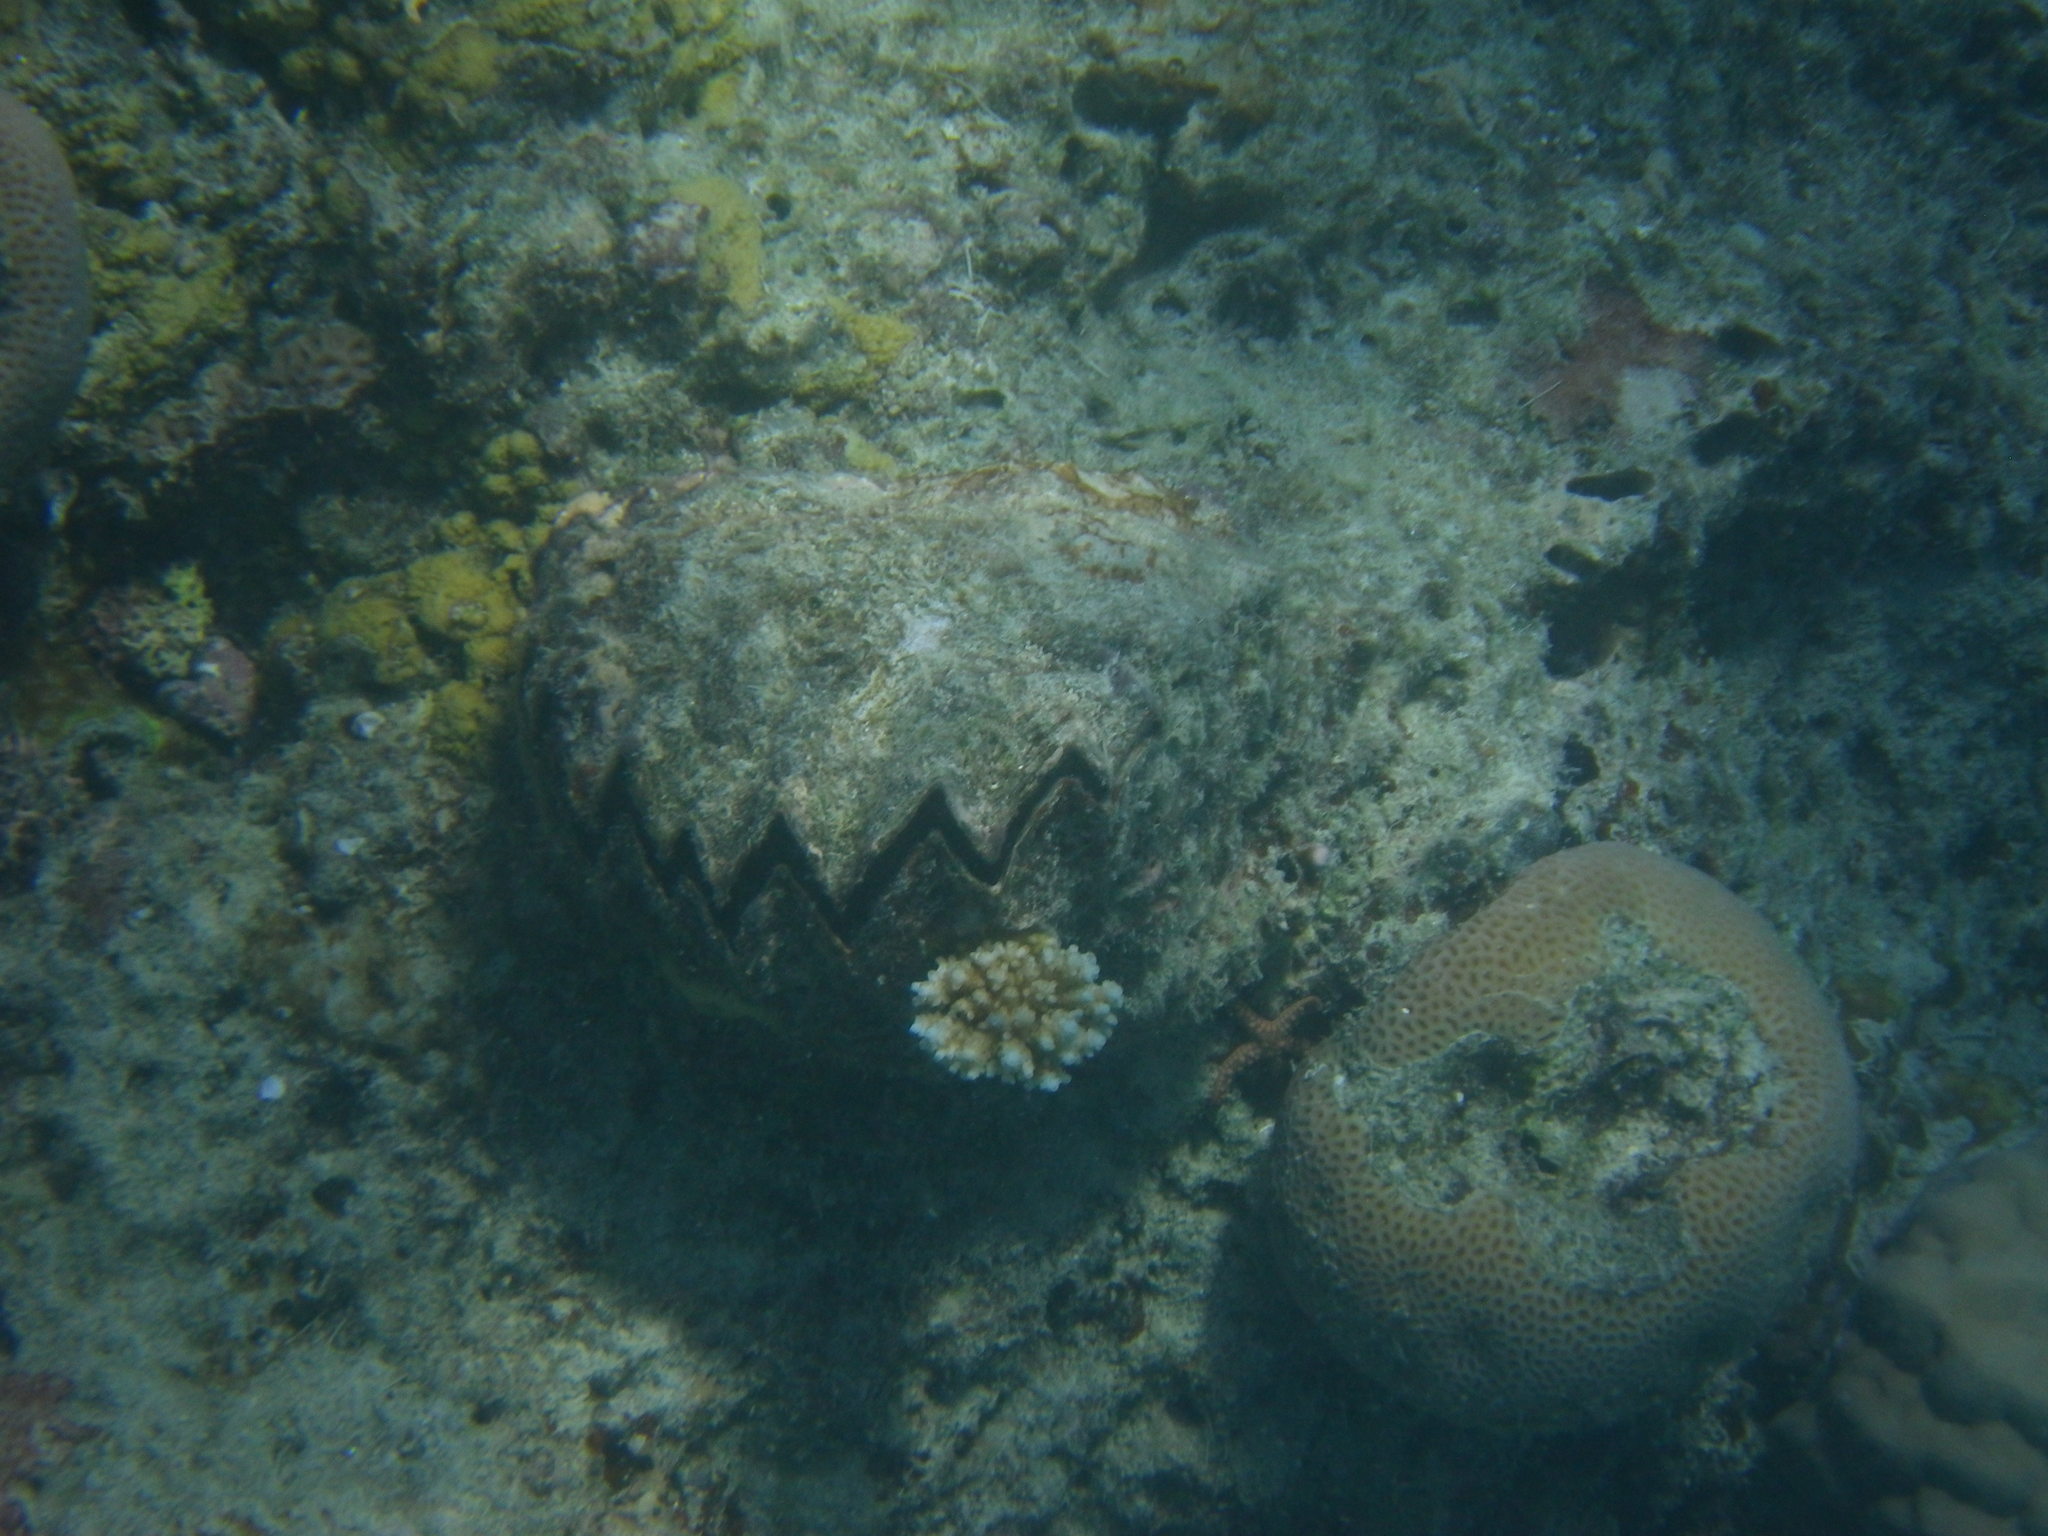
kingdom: Animalia
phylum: Mollusca
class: Bivalvia
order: Ostreida
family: Ostreidae
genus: Lopha
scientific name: Lopha cristagalli
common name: Cock's-comb oyster
